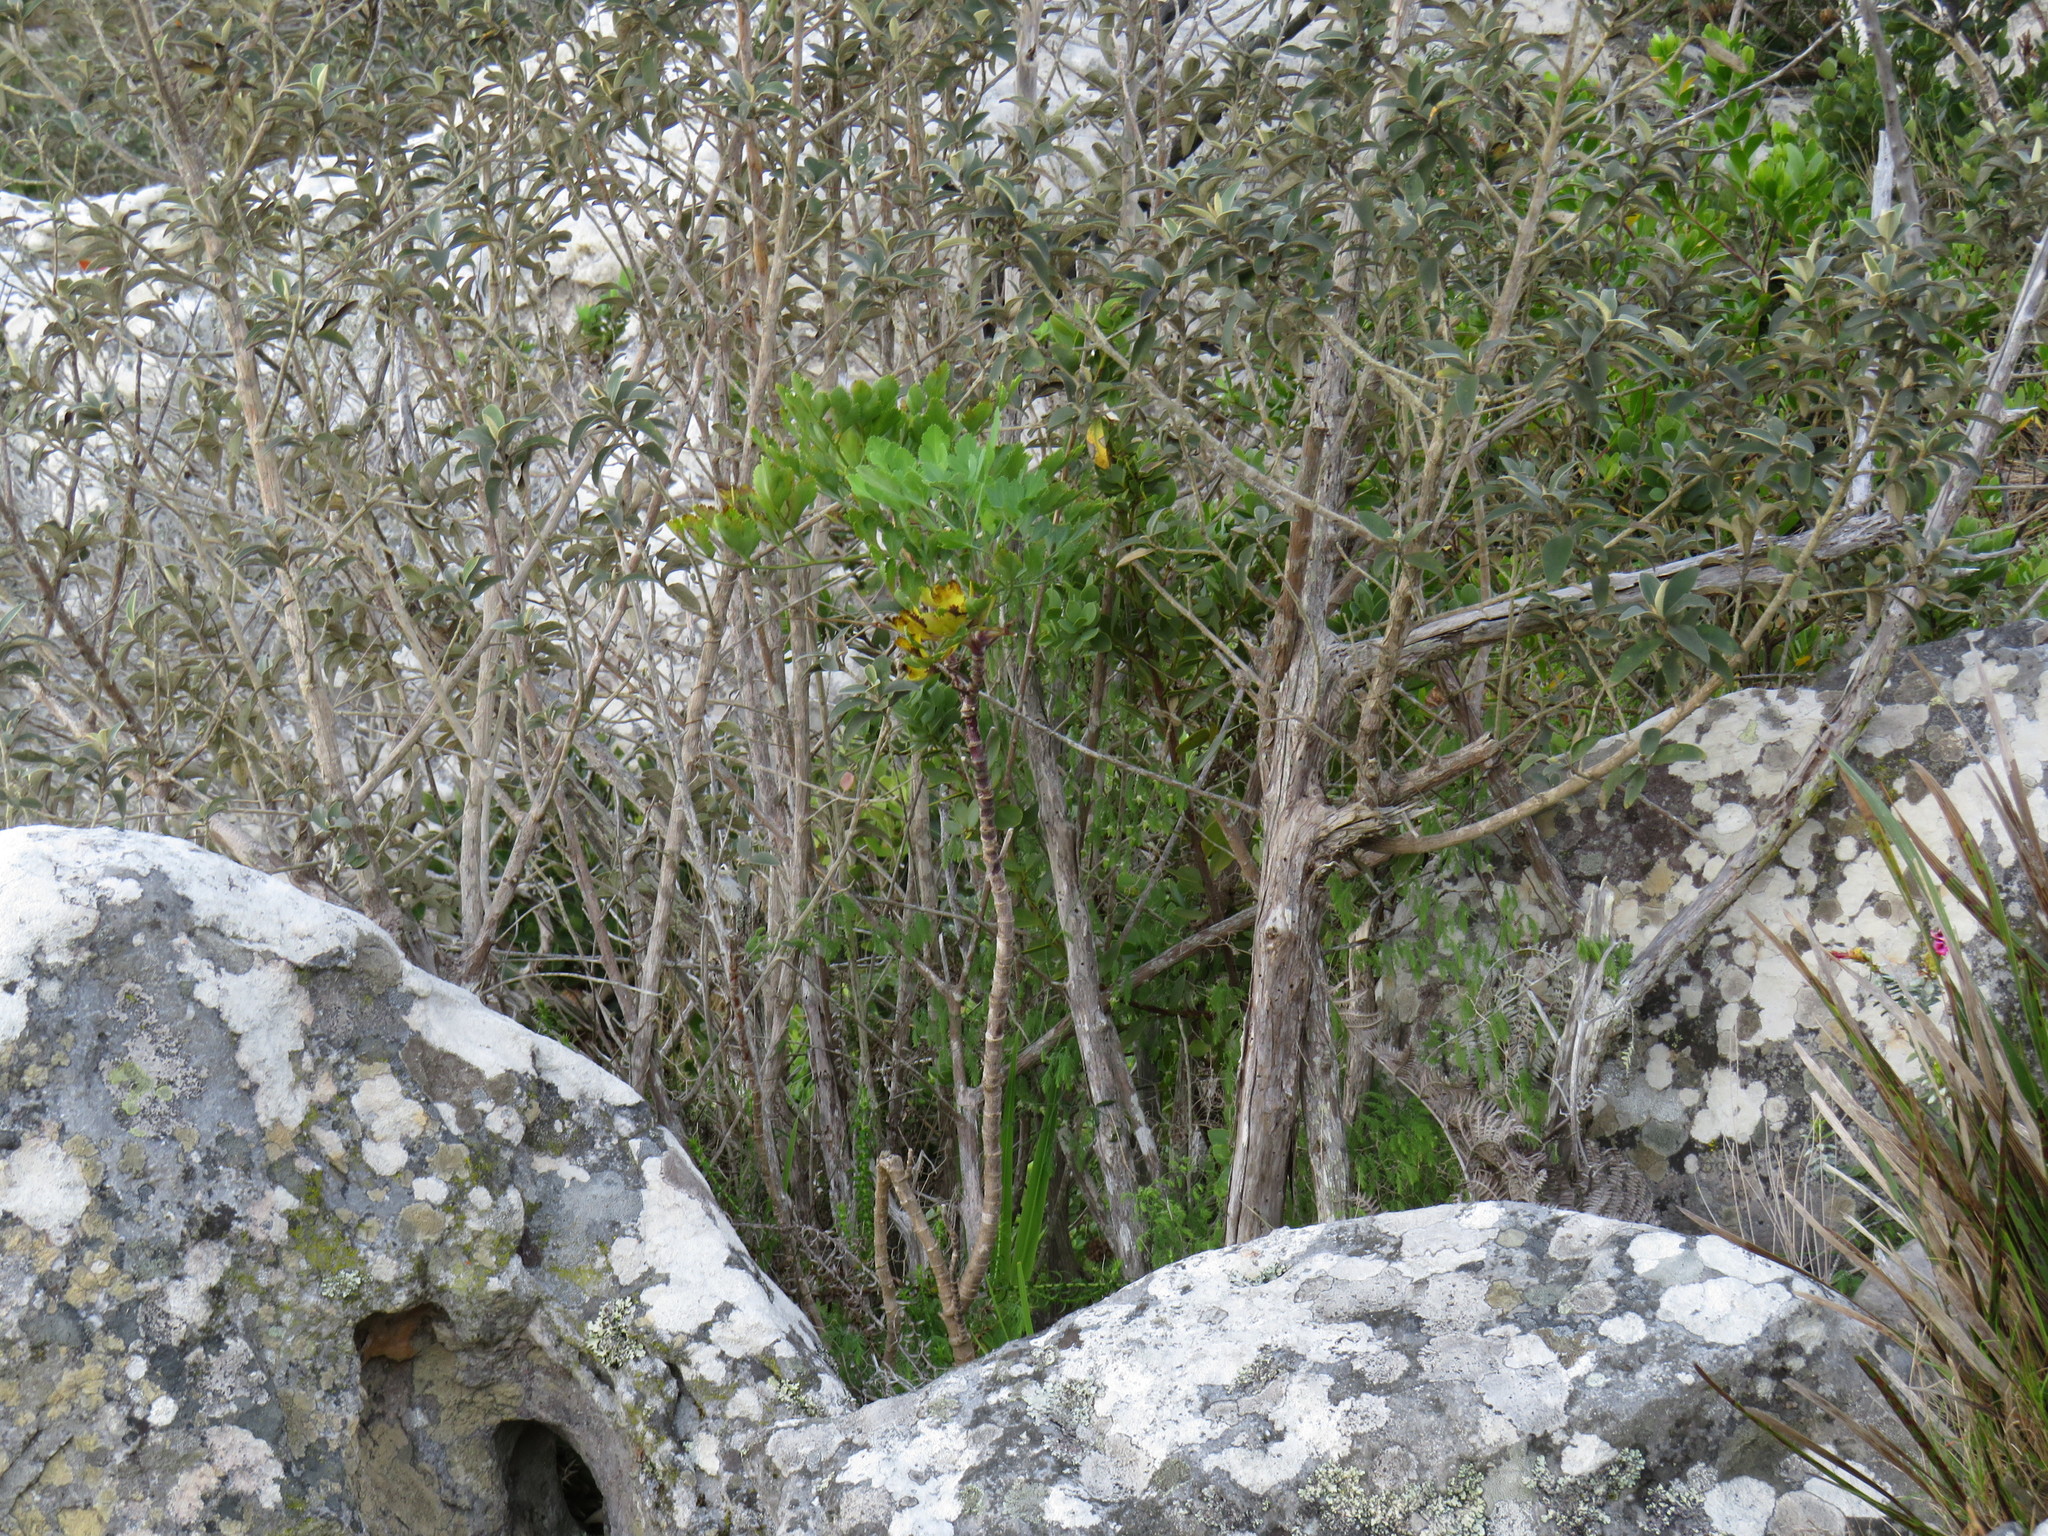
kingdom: Plantae
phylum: Tracheophyta
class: Magnoliopsida
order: Apiales
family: Apiaceae
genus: Notobubon
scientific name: Notobubon galbanum
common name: Blisterbush
